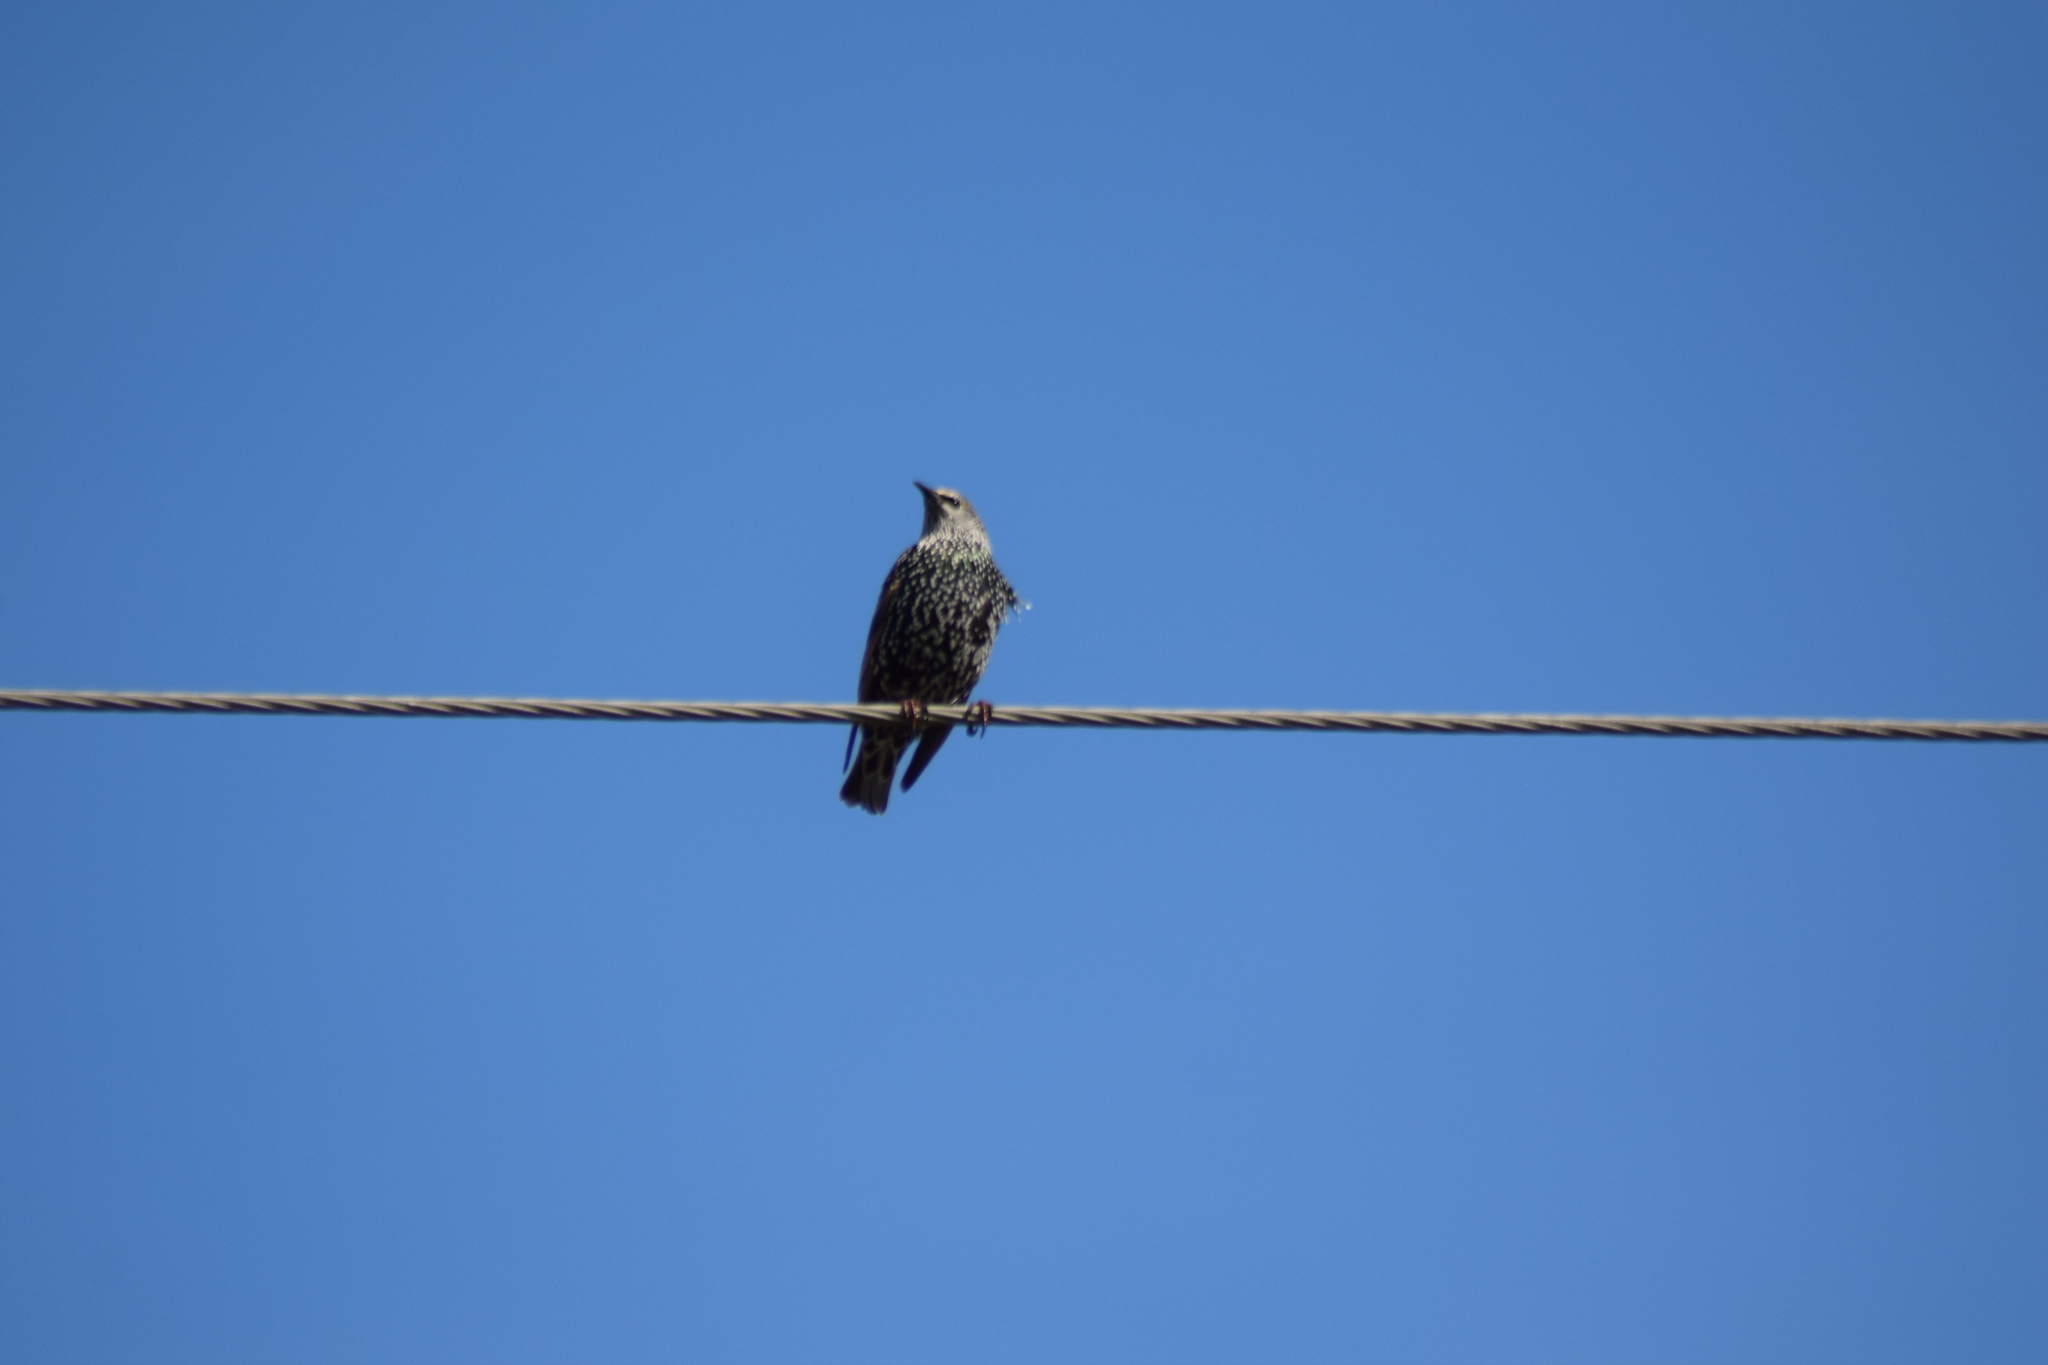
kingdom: Animalia
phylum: Chordata
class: Aves
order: Passeriformes
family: Sturnidae
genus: Sturnus
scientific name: Sturnus vulgaris
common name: Common starling
